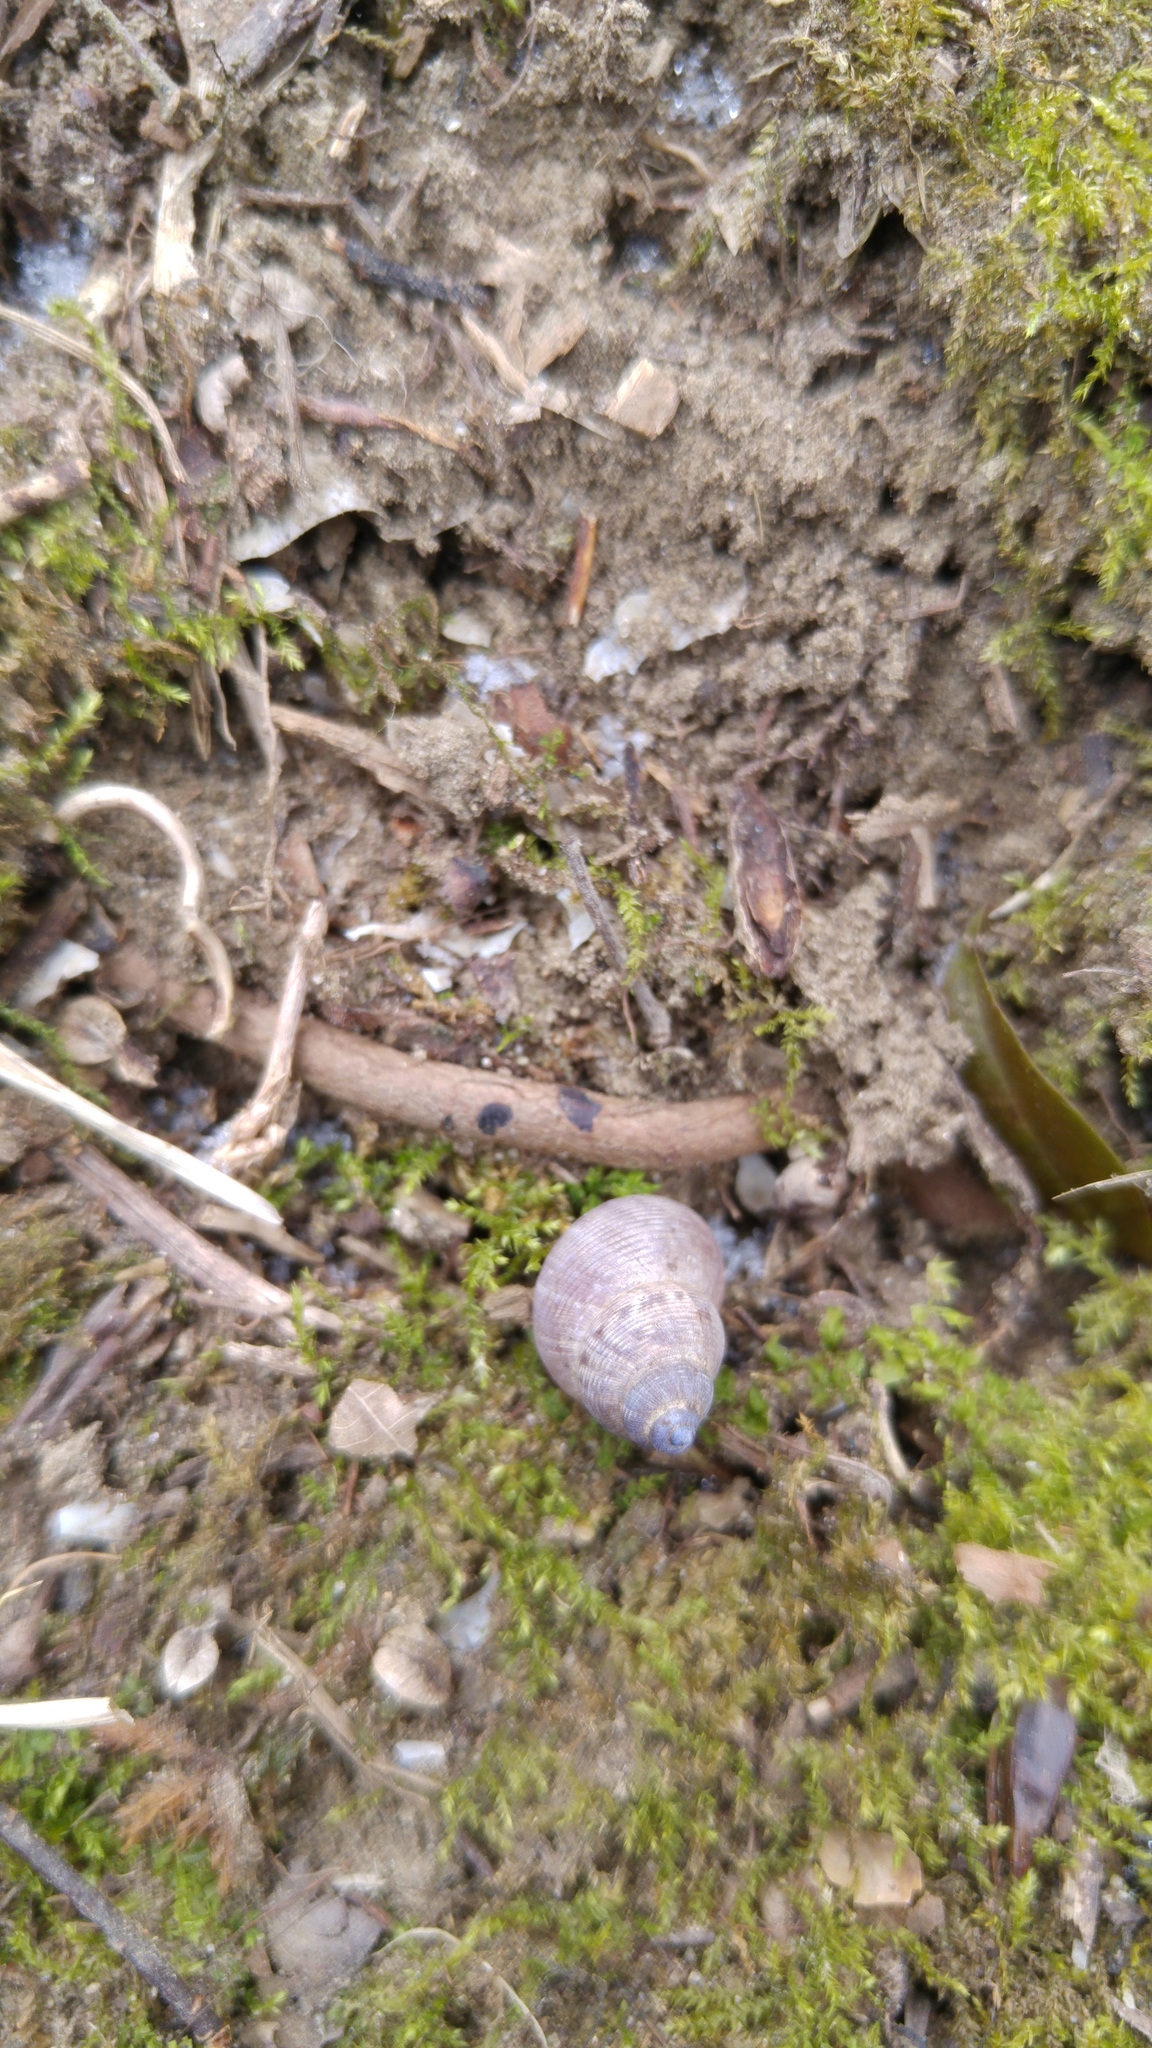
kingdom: Animalia
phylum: Mollusca
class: Gastropoda
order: Littorinimorpha
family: Pomatiidae
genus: Pomatias
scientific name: Pomatias elegans
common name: Red-mouthed snail
